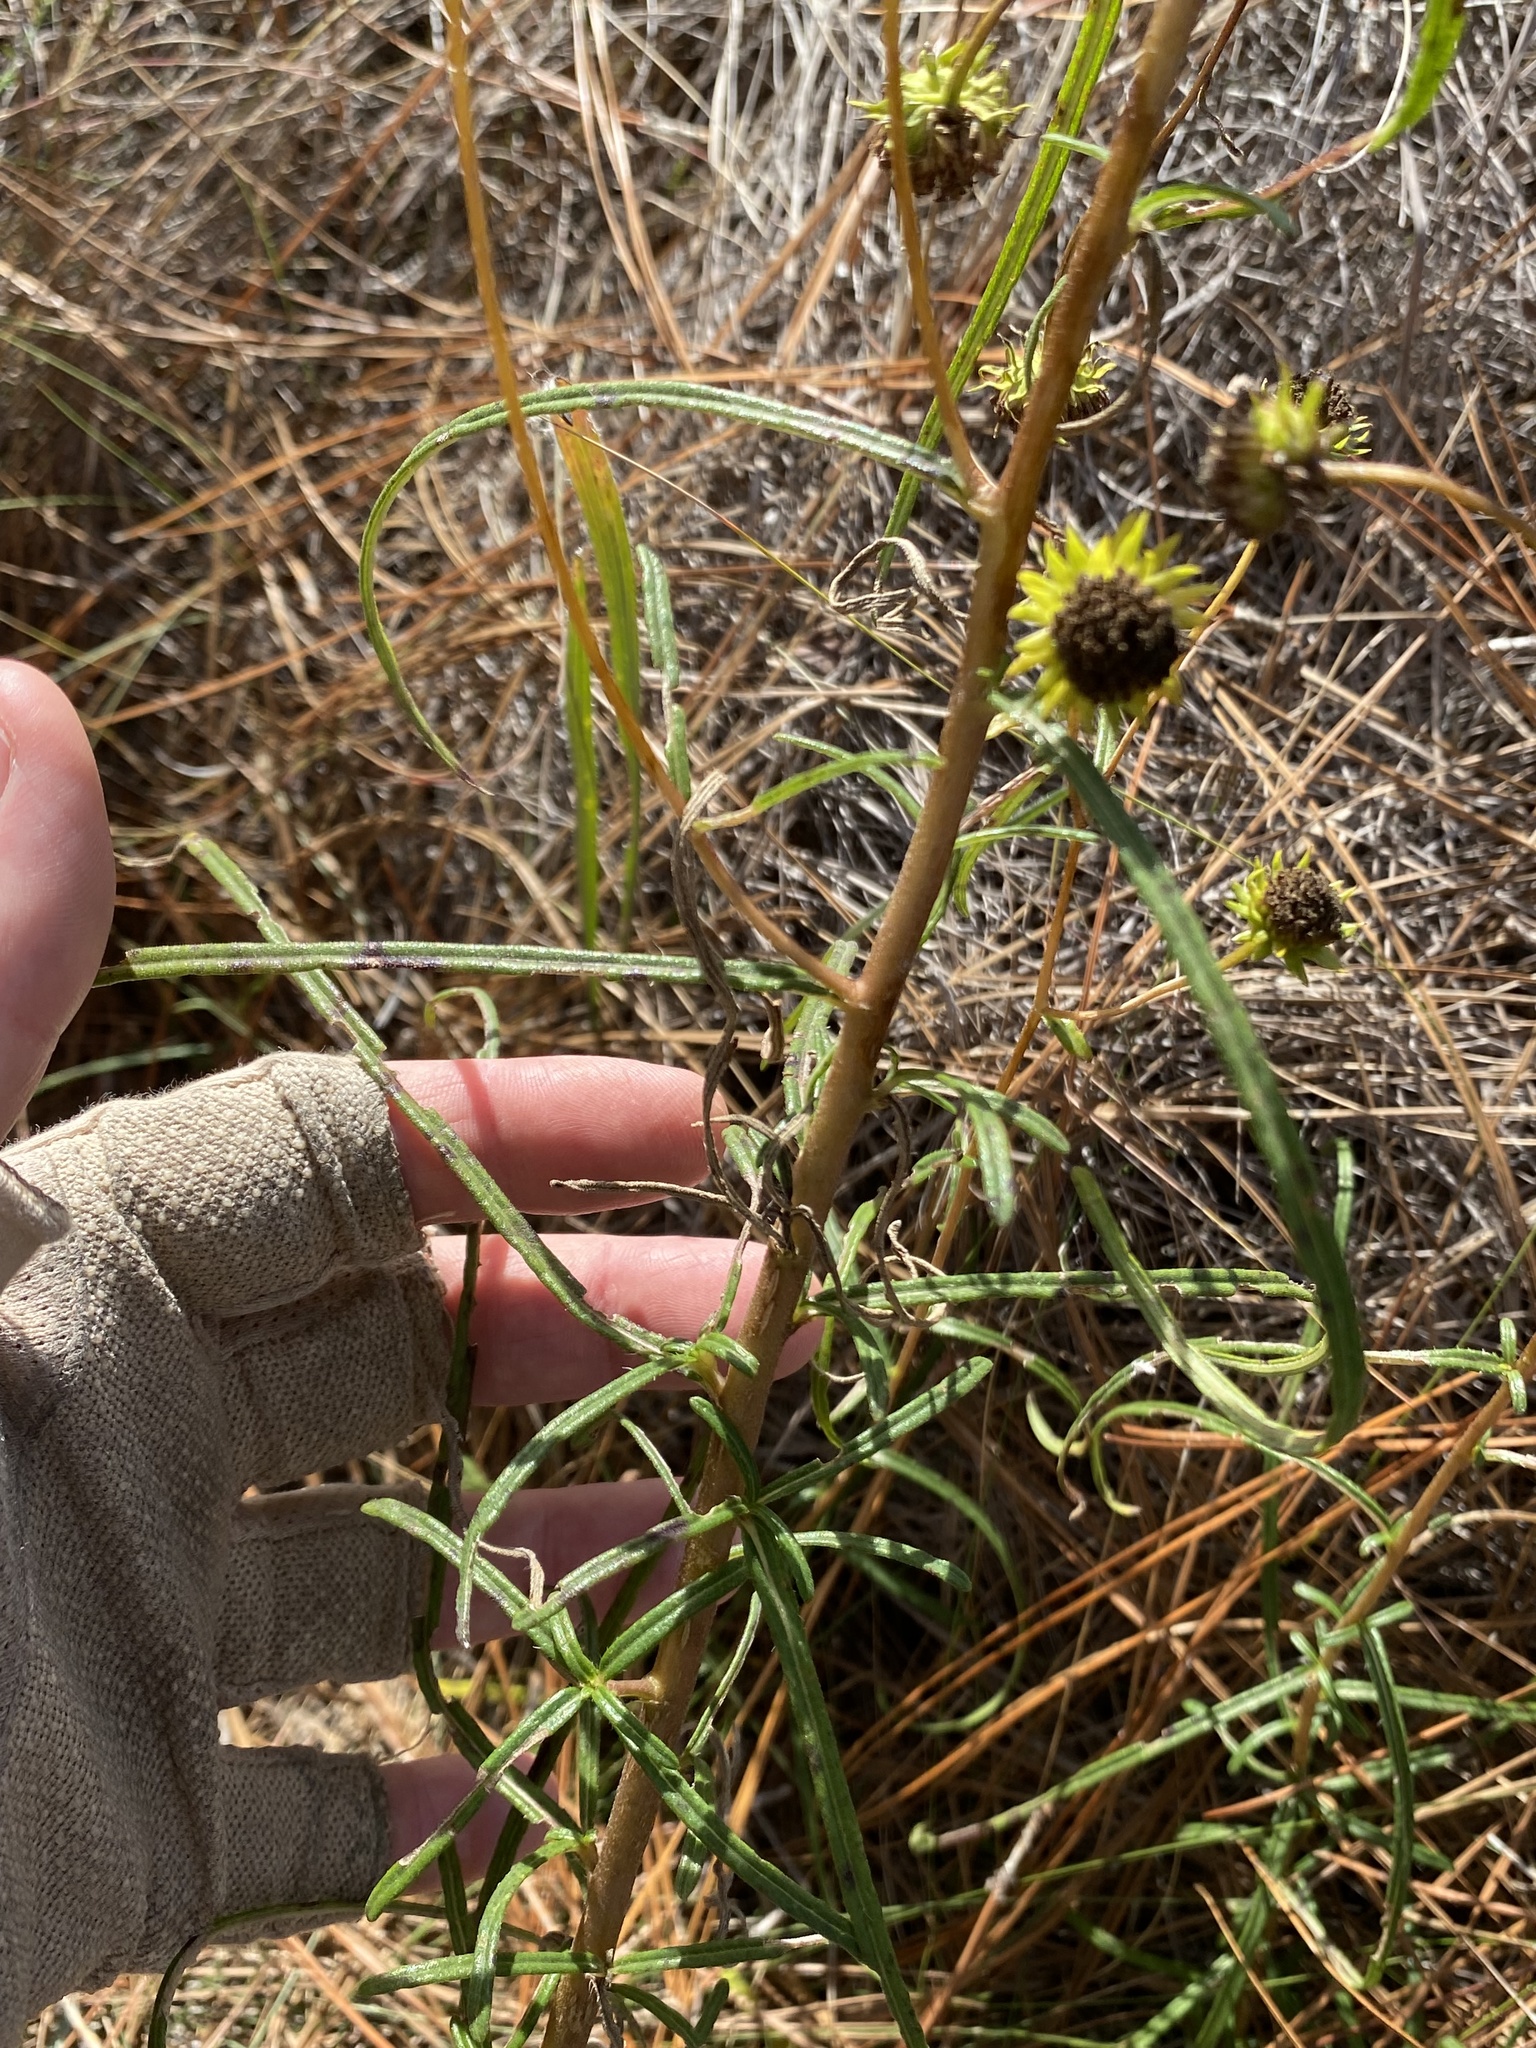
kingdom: Plantae
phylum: Tracheophyta
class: Magnoliopsida
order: Asterales
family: Asteraceae
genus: Helianthus
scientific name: Helianthus angustifolius
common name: Swamp sunflower
